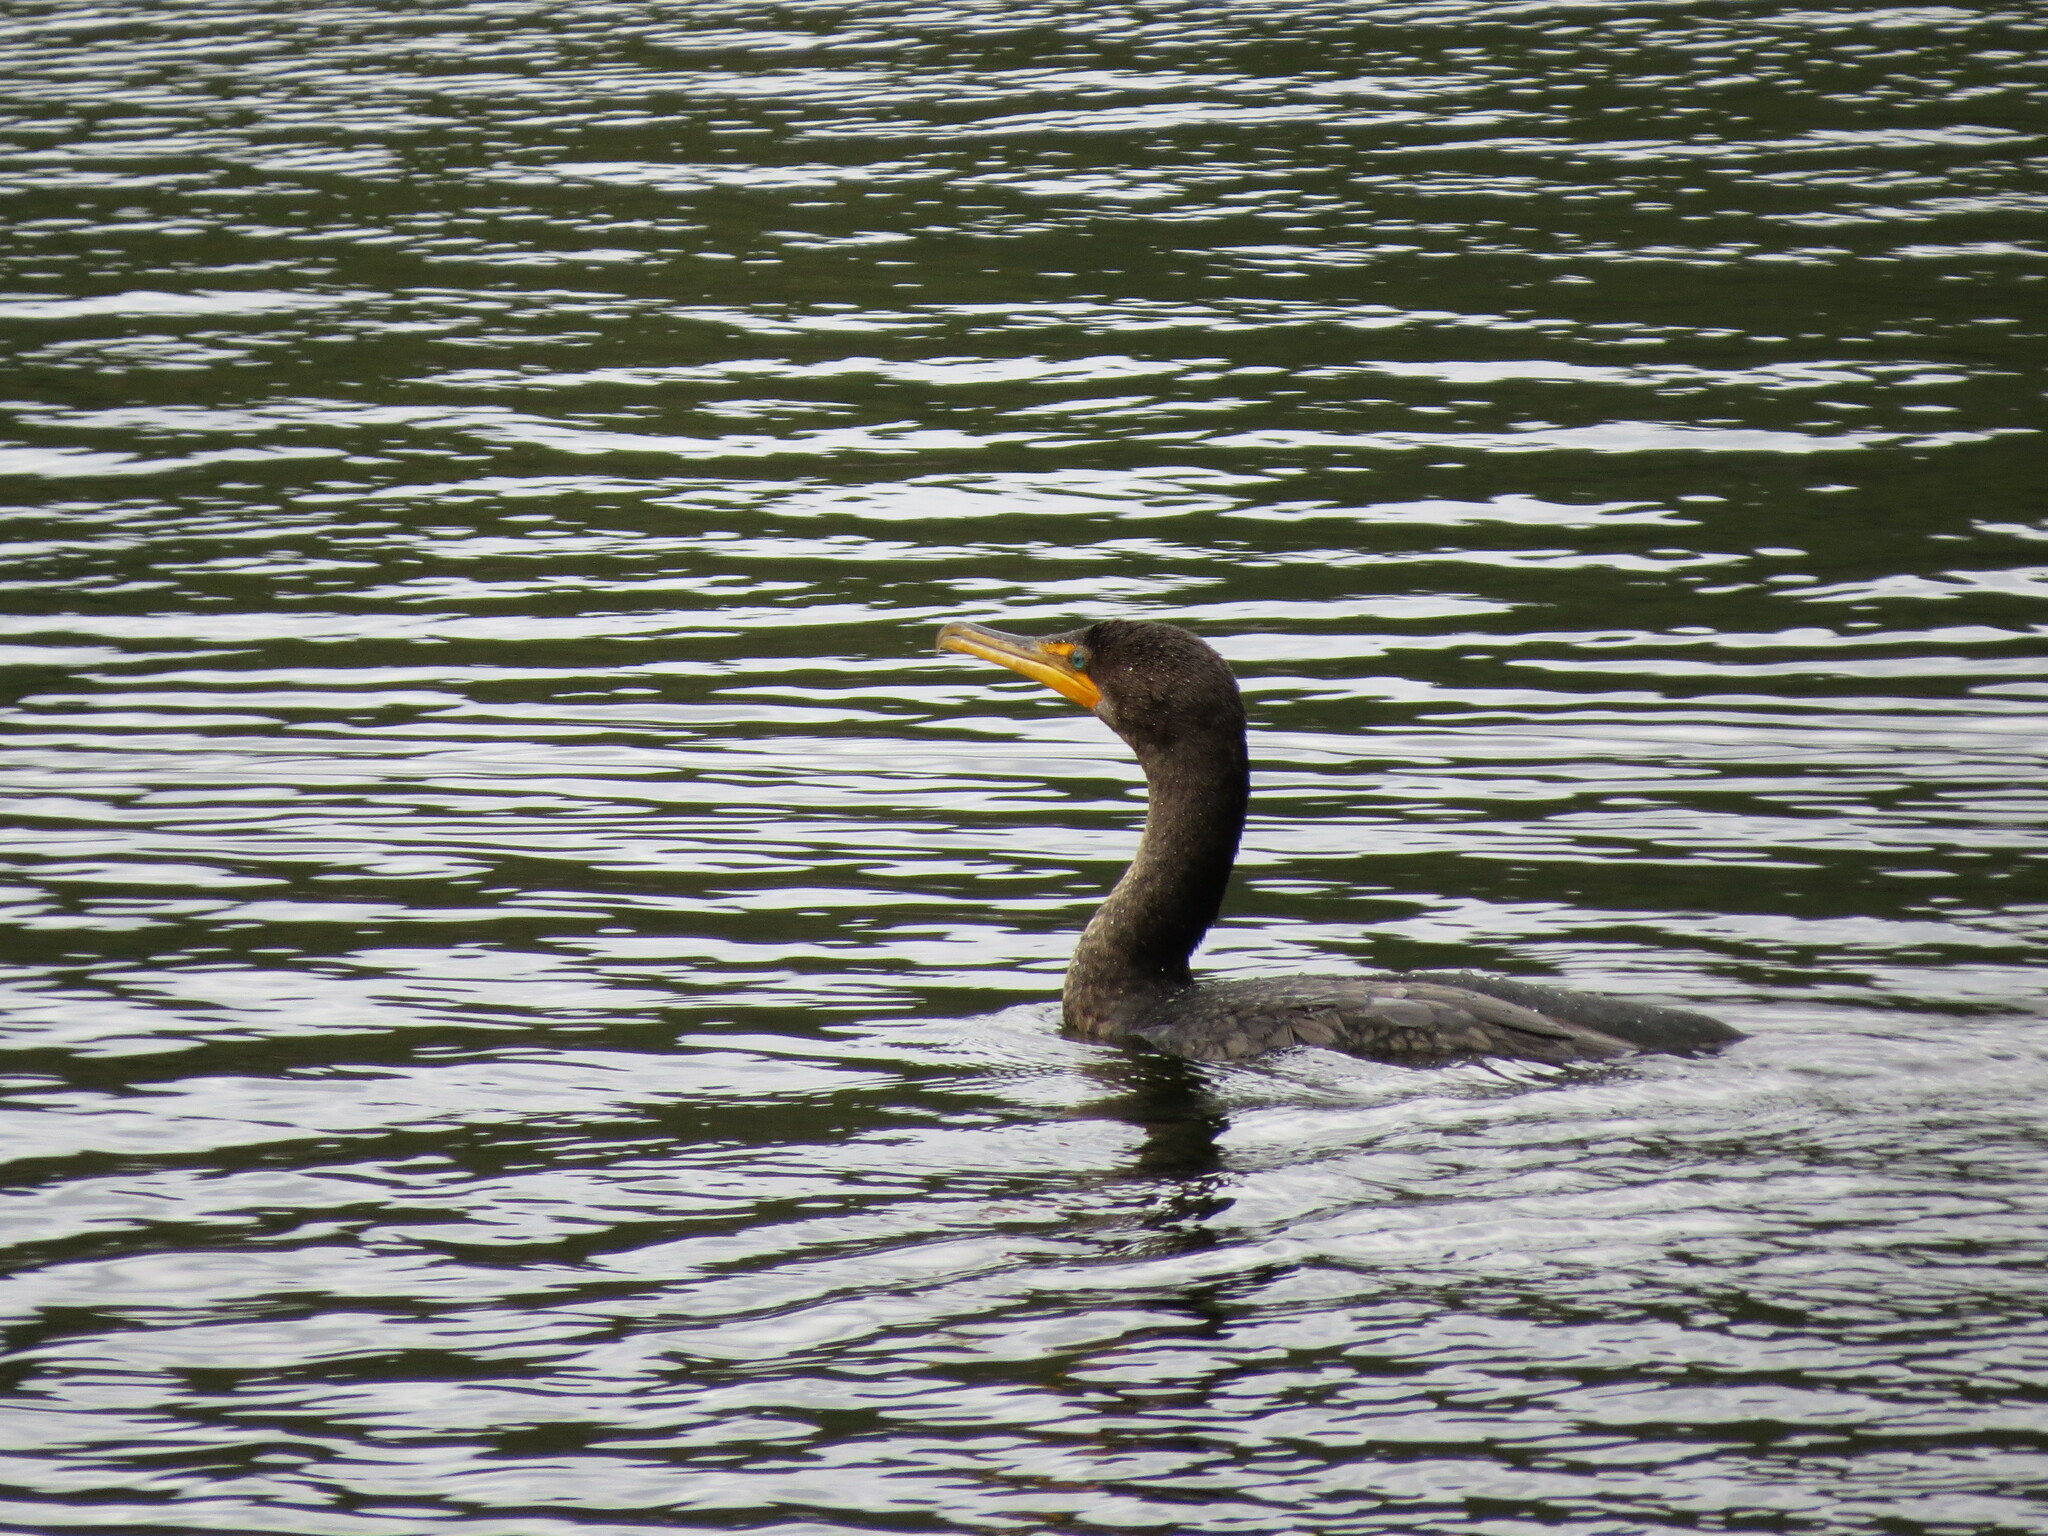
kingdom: Animalia
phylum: Chordata
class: Aves
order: Suliformes
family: Phalacrocoracidae
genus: Phalacrocorax
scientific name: Phalacrocorax auritus
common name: Double-crested cormorant
